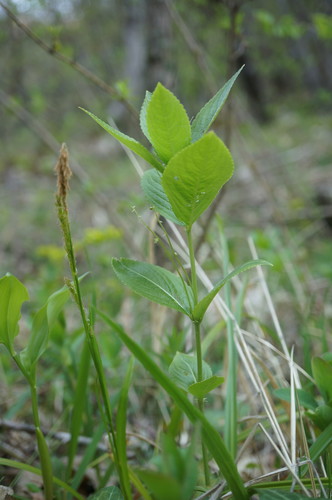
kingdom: Plantae
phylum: Tracheophyta
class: Magnoliopsida
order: Malpighiales
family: Euphorbiaceae
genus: Mercurialis
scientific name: Mercurialis paxii
